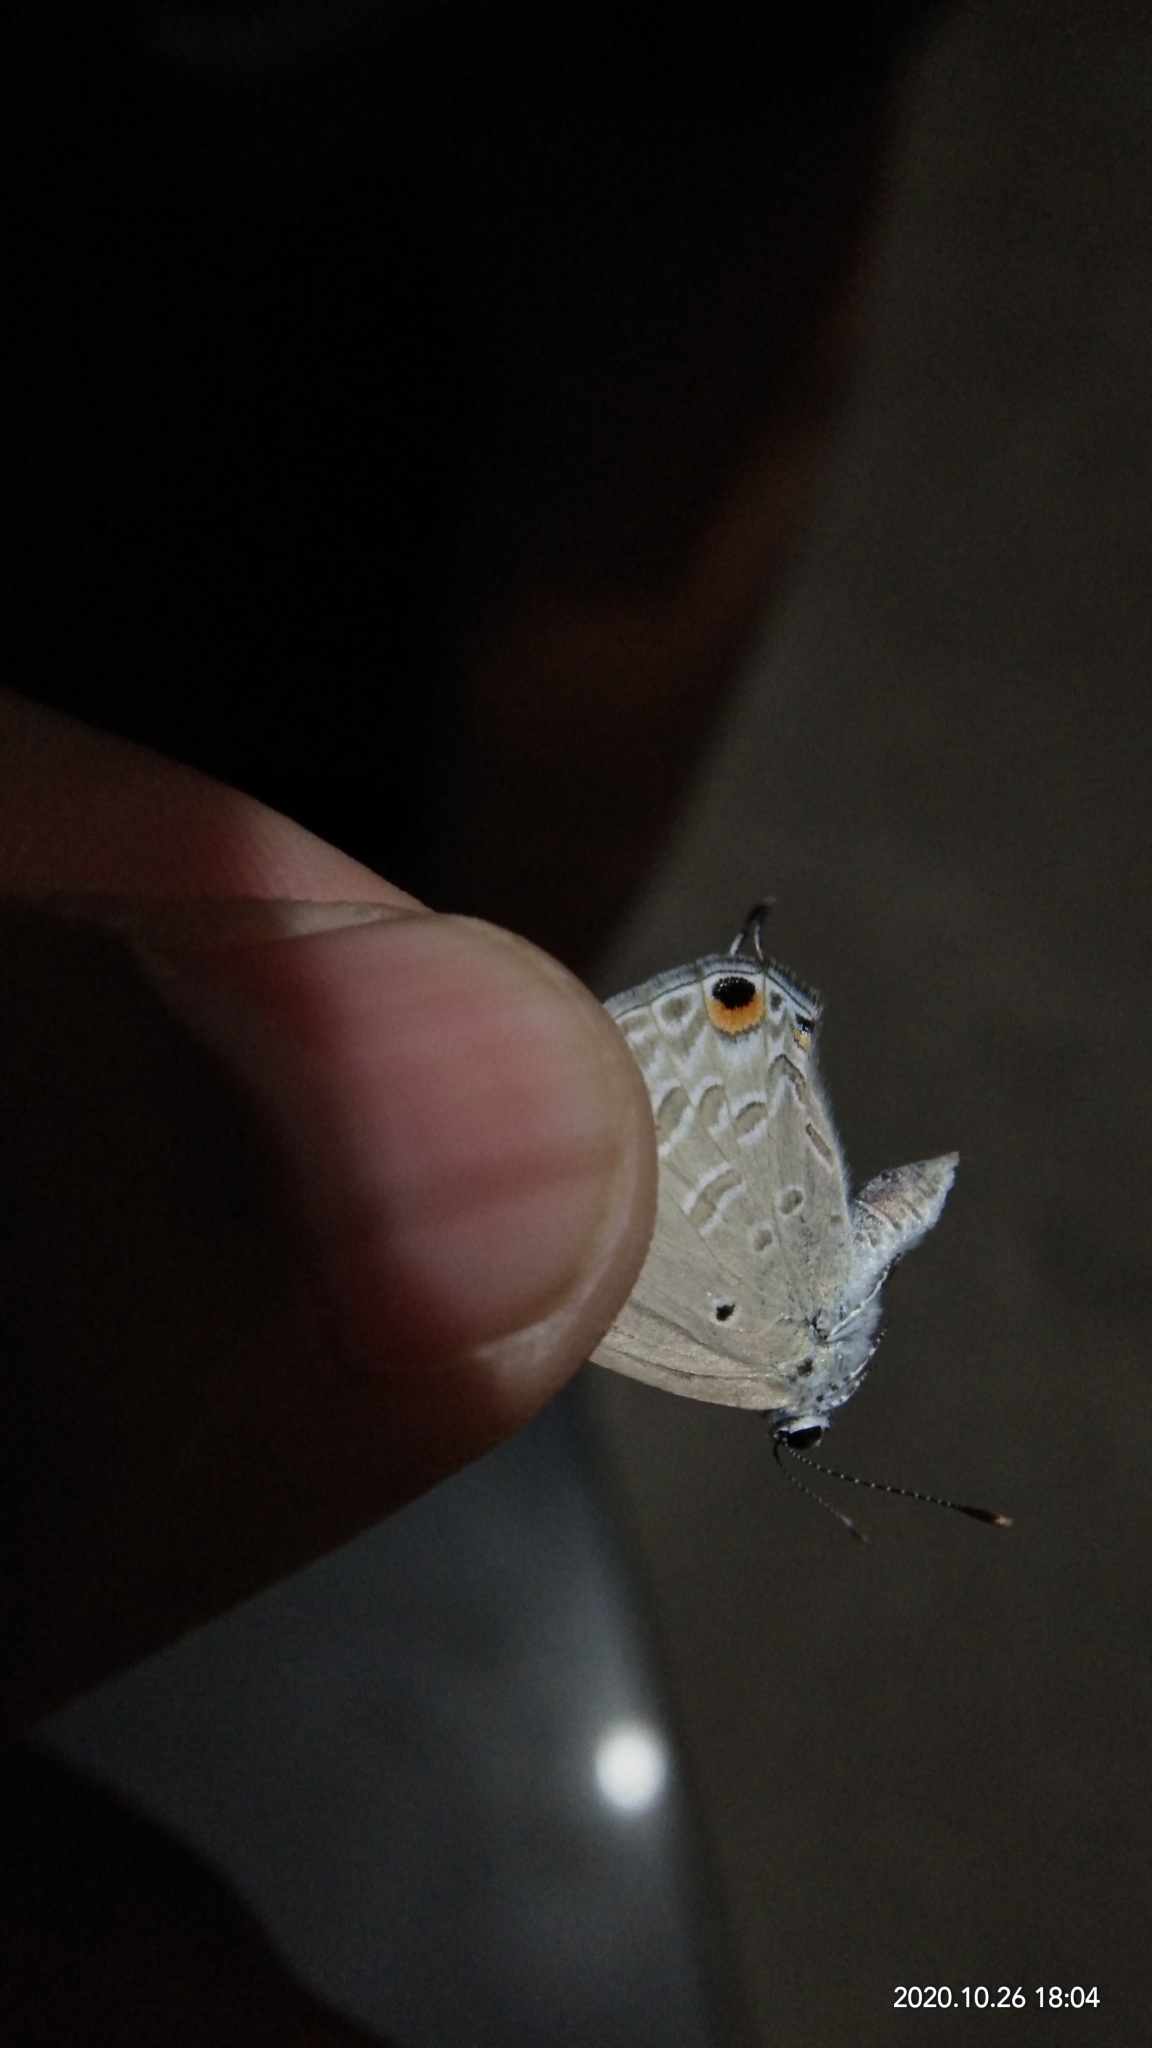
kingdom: Animalia
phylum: Arthropoda
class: Insecta
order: Lepidoptera
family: Lycaenidae
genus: Catochrysops
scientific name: Catochrysops strabo
